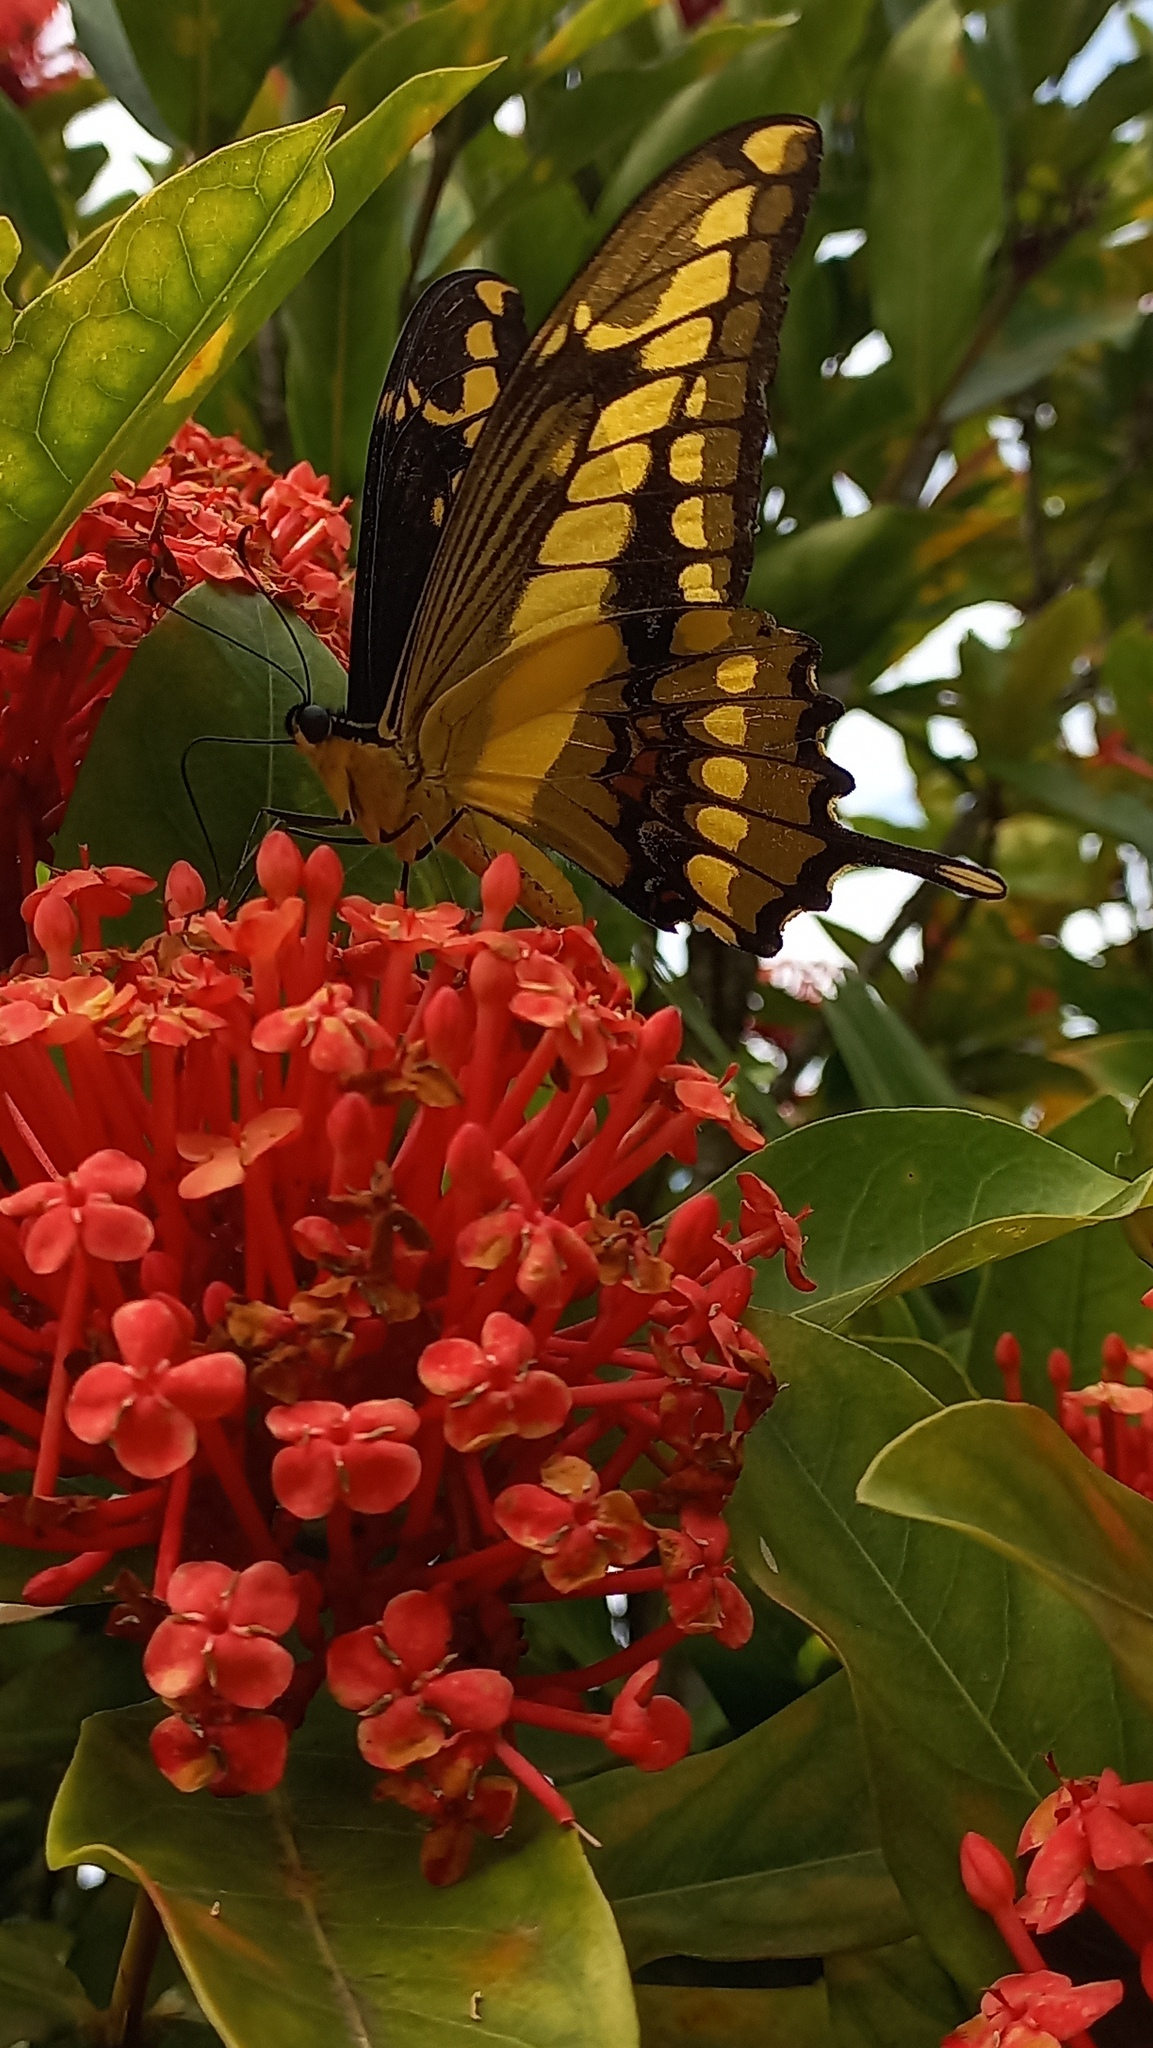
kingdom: Animalia
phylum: Arthropoda
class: Insecta
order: Lepidoptera
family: Papilionidae
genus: Papilio
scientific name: Papilio thoas
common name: King swallowtail
